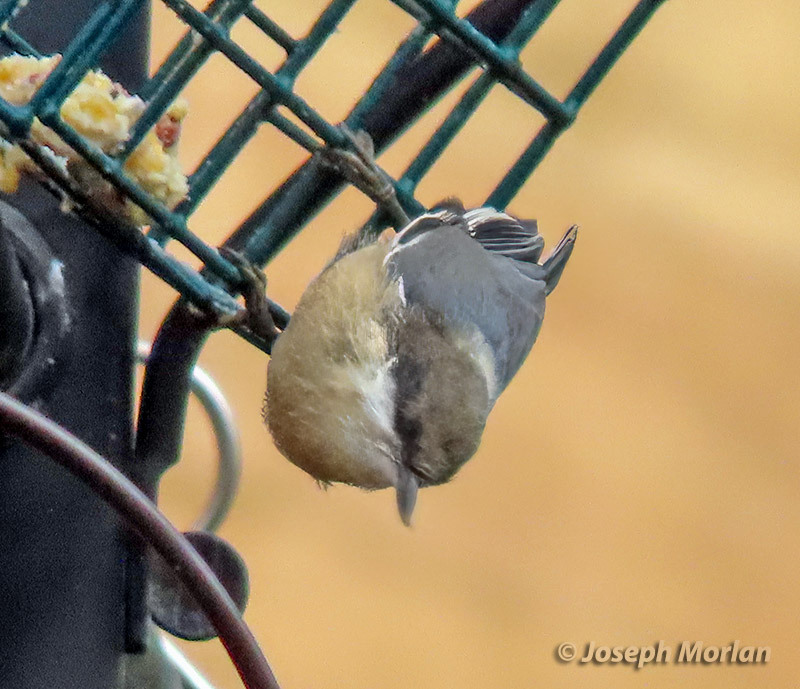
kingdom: Animalia
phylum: Chordata
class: Aves
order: Passeriformes
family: Sittidae
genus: Sitta
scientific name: Sitta pygmaea
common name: Pygmy nuthatch
